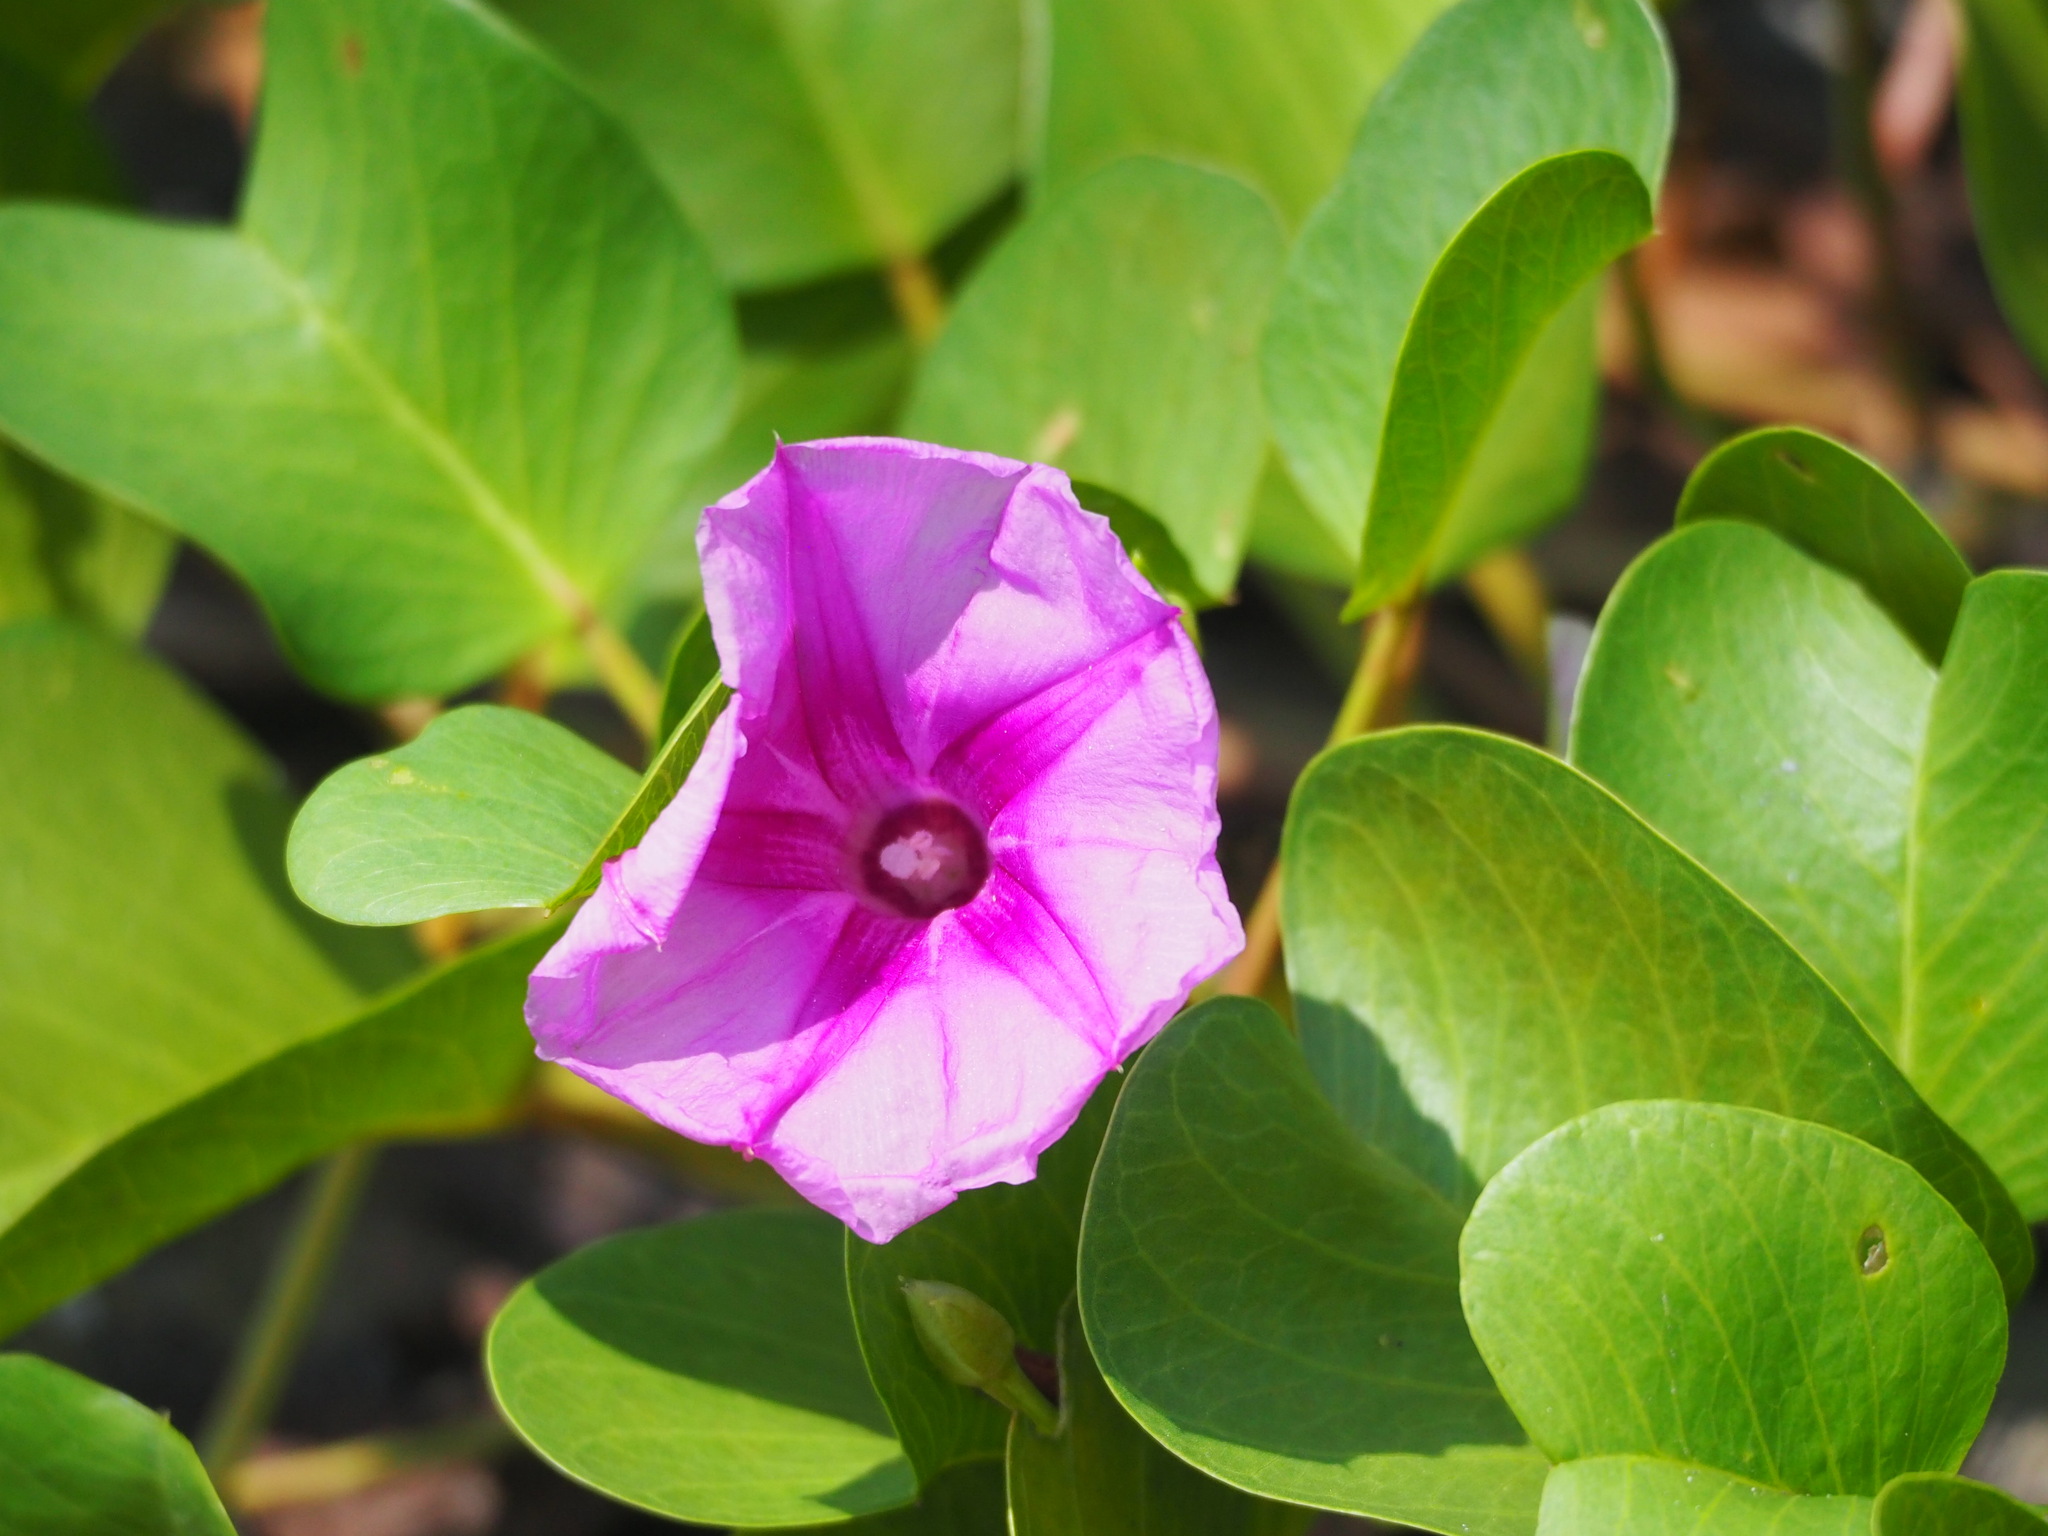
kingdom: Plantae
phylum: Tracheophyta
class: Magnoliopsida
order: Solanales
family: Convolvulaceae
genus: Ipomoea
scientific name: Ipomoea pes-caprae
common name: Beach morning glory
